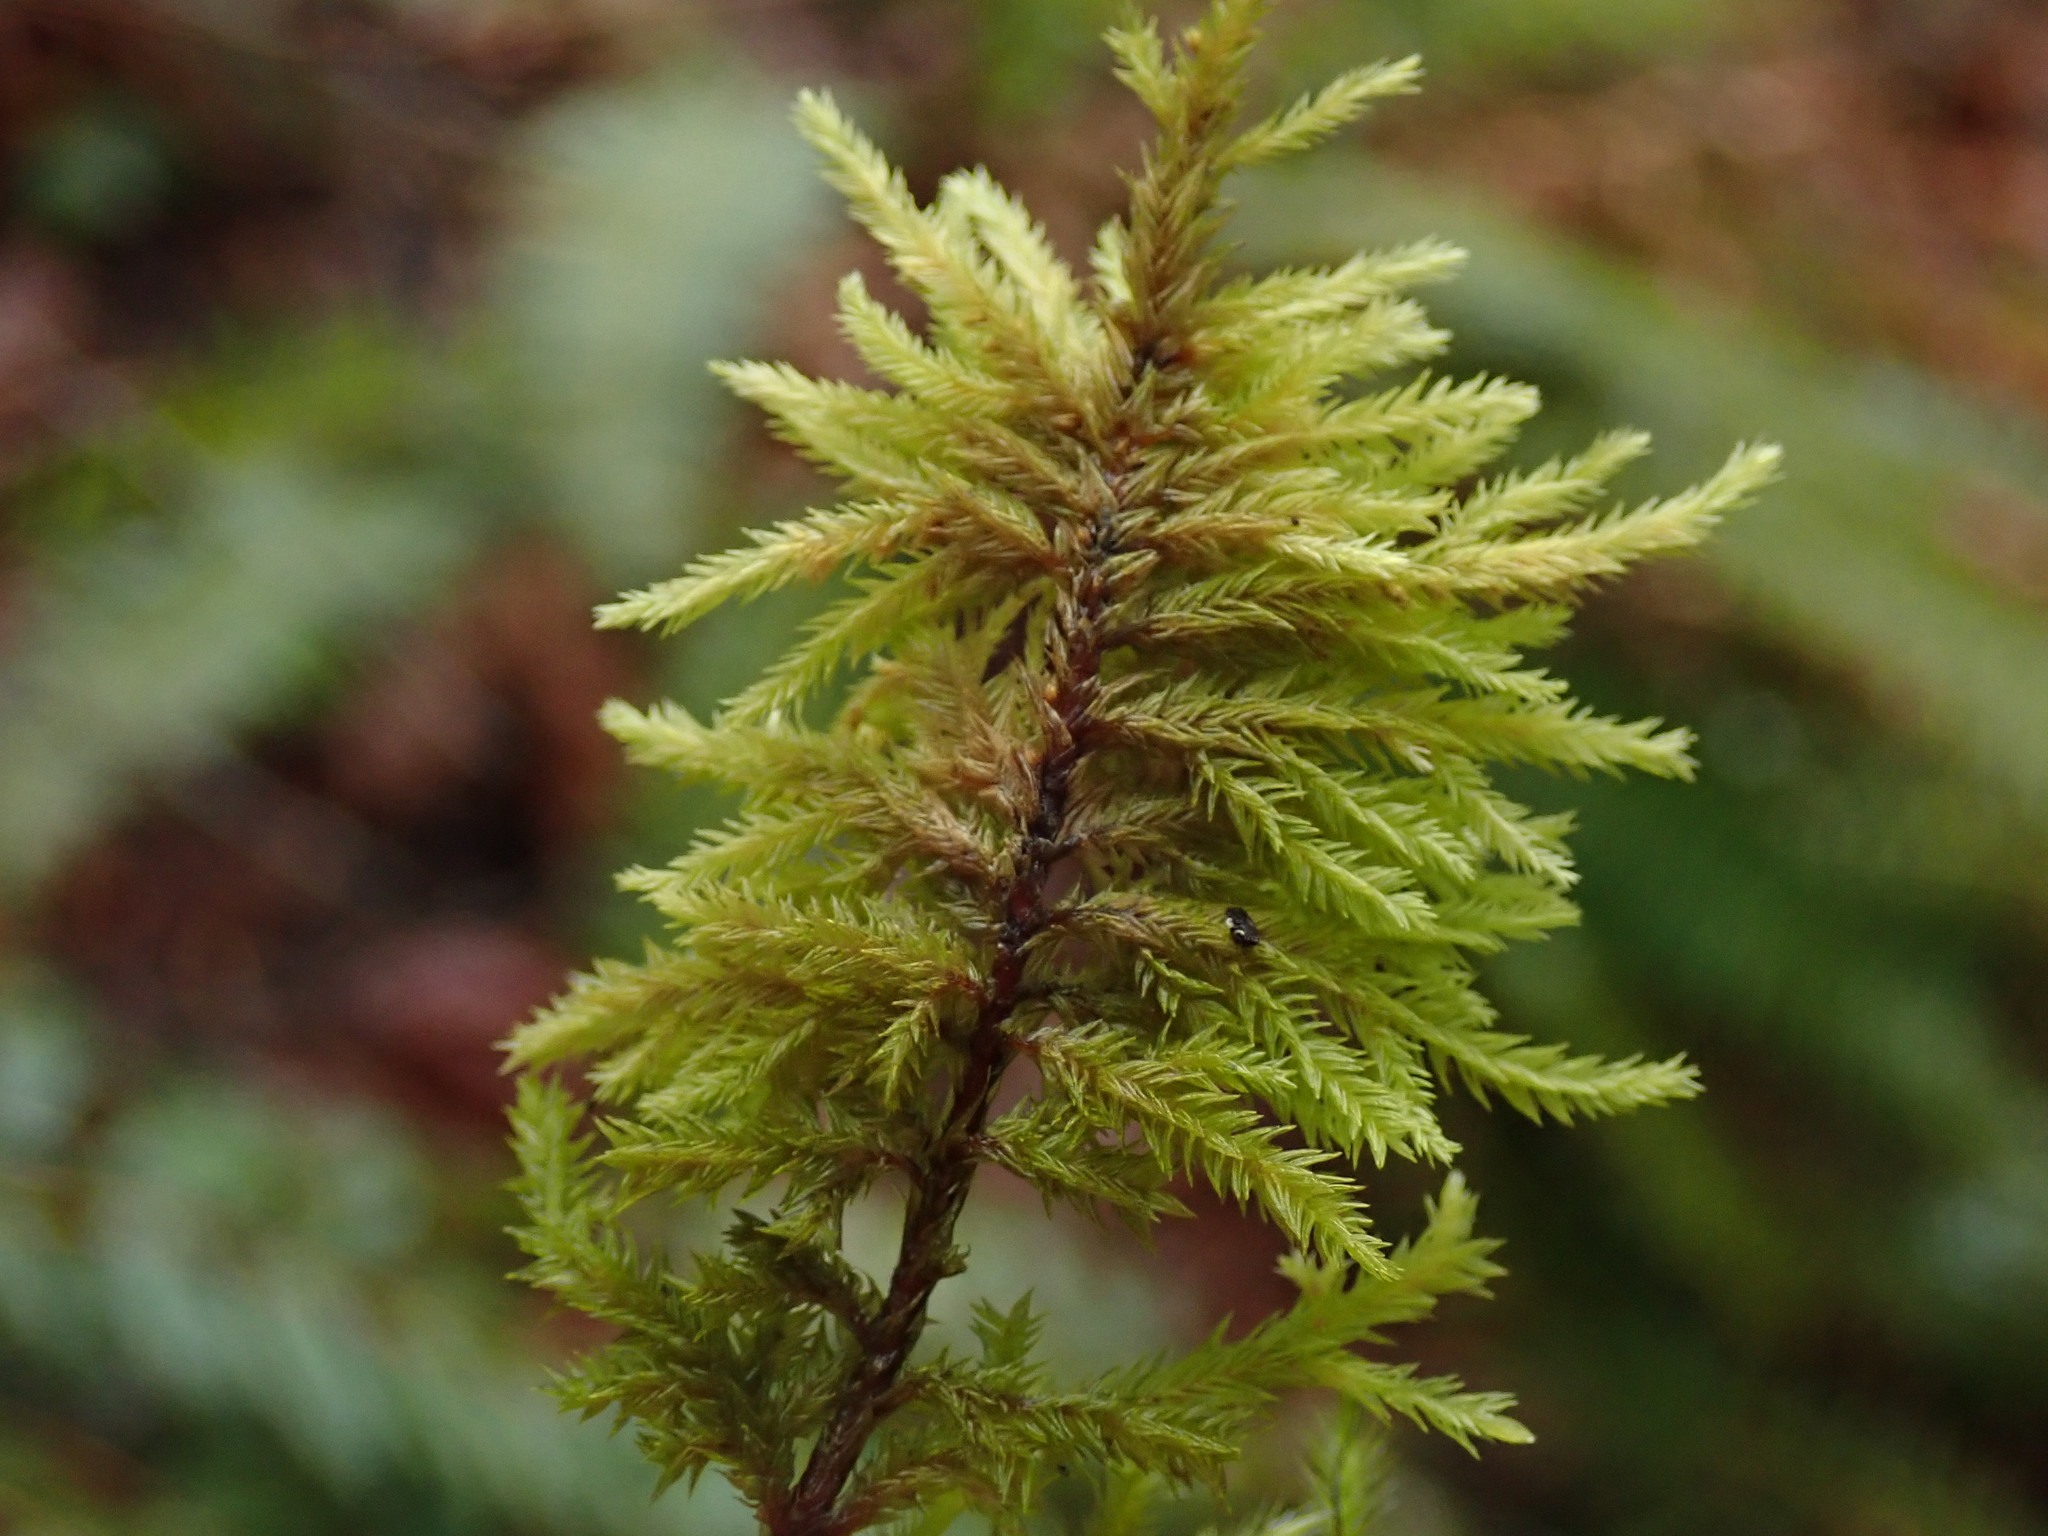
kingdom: Plantae
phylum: Bryophyta
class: Bryopsida
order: Hypnales
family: Cryphaeaceae
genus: Dendroalsia
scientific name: Dendroalsia abietina
